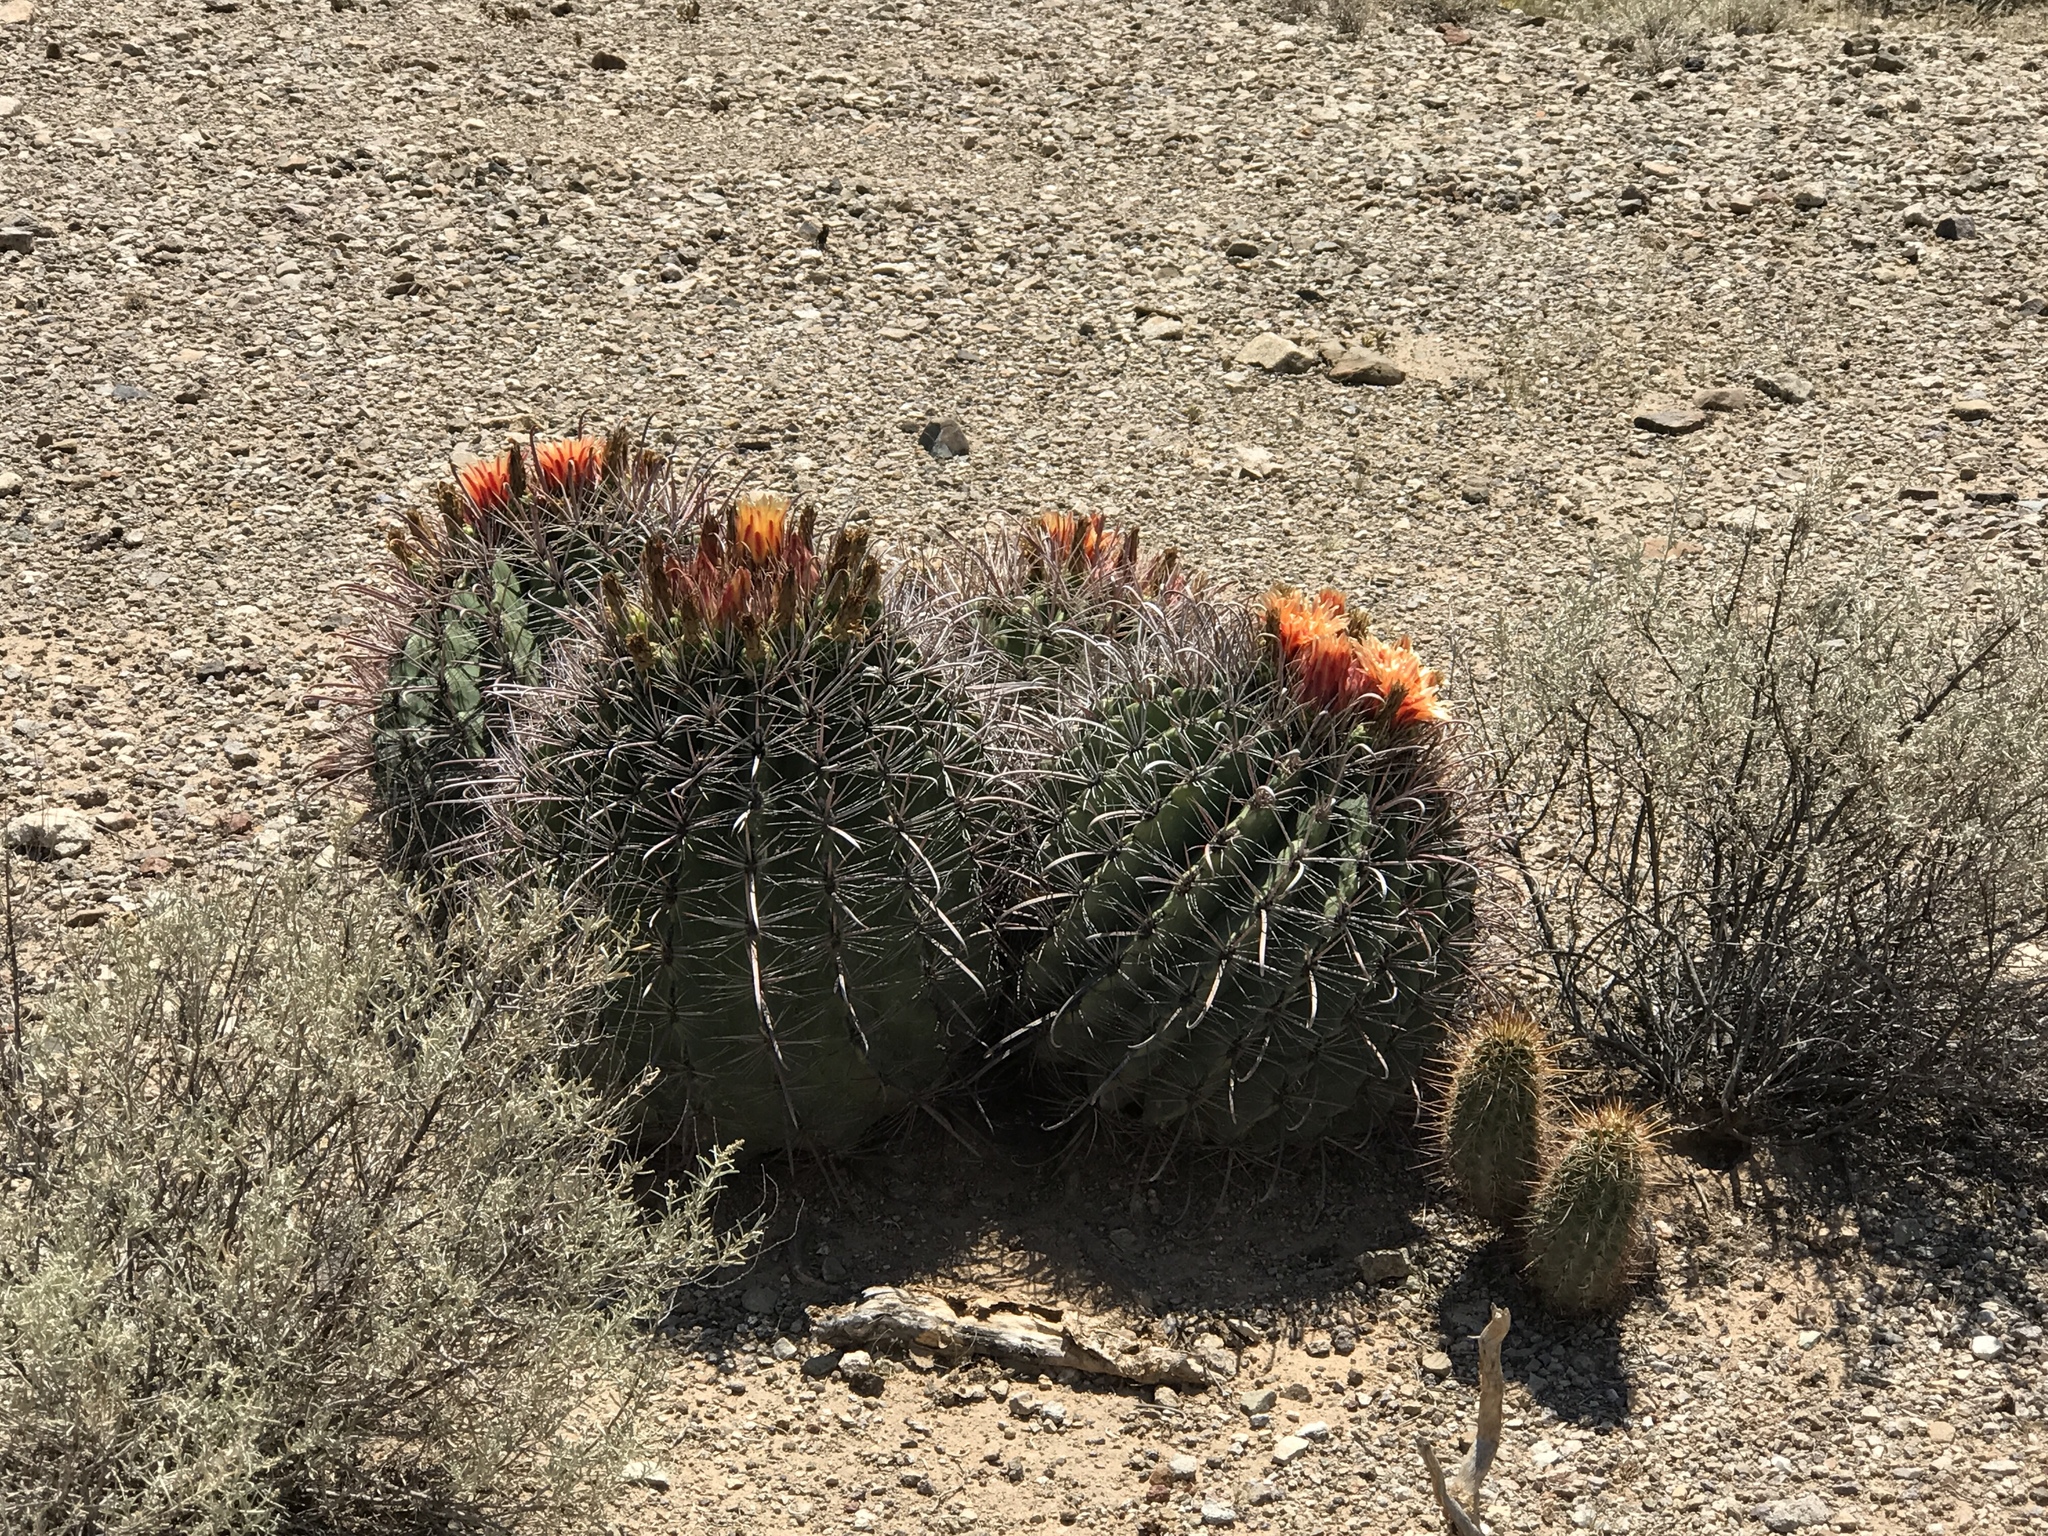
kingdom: Plantae
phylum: Tracheophyta
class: Magnoliopsida
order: Caryophyllales
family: Cactaceae
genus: Ferocactus
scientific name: Ferocactus wislizeni
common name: Candy barrel cactus
